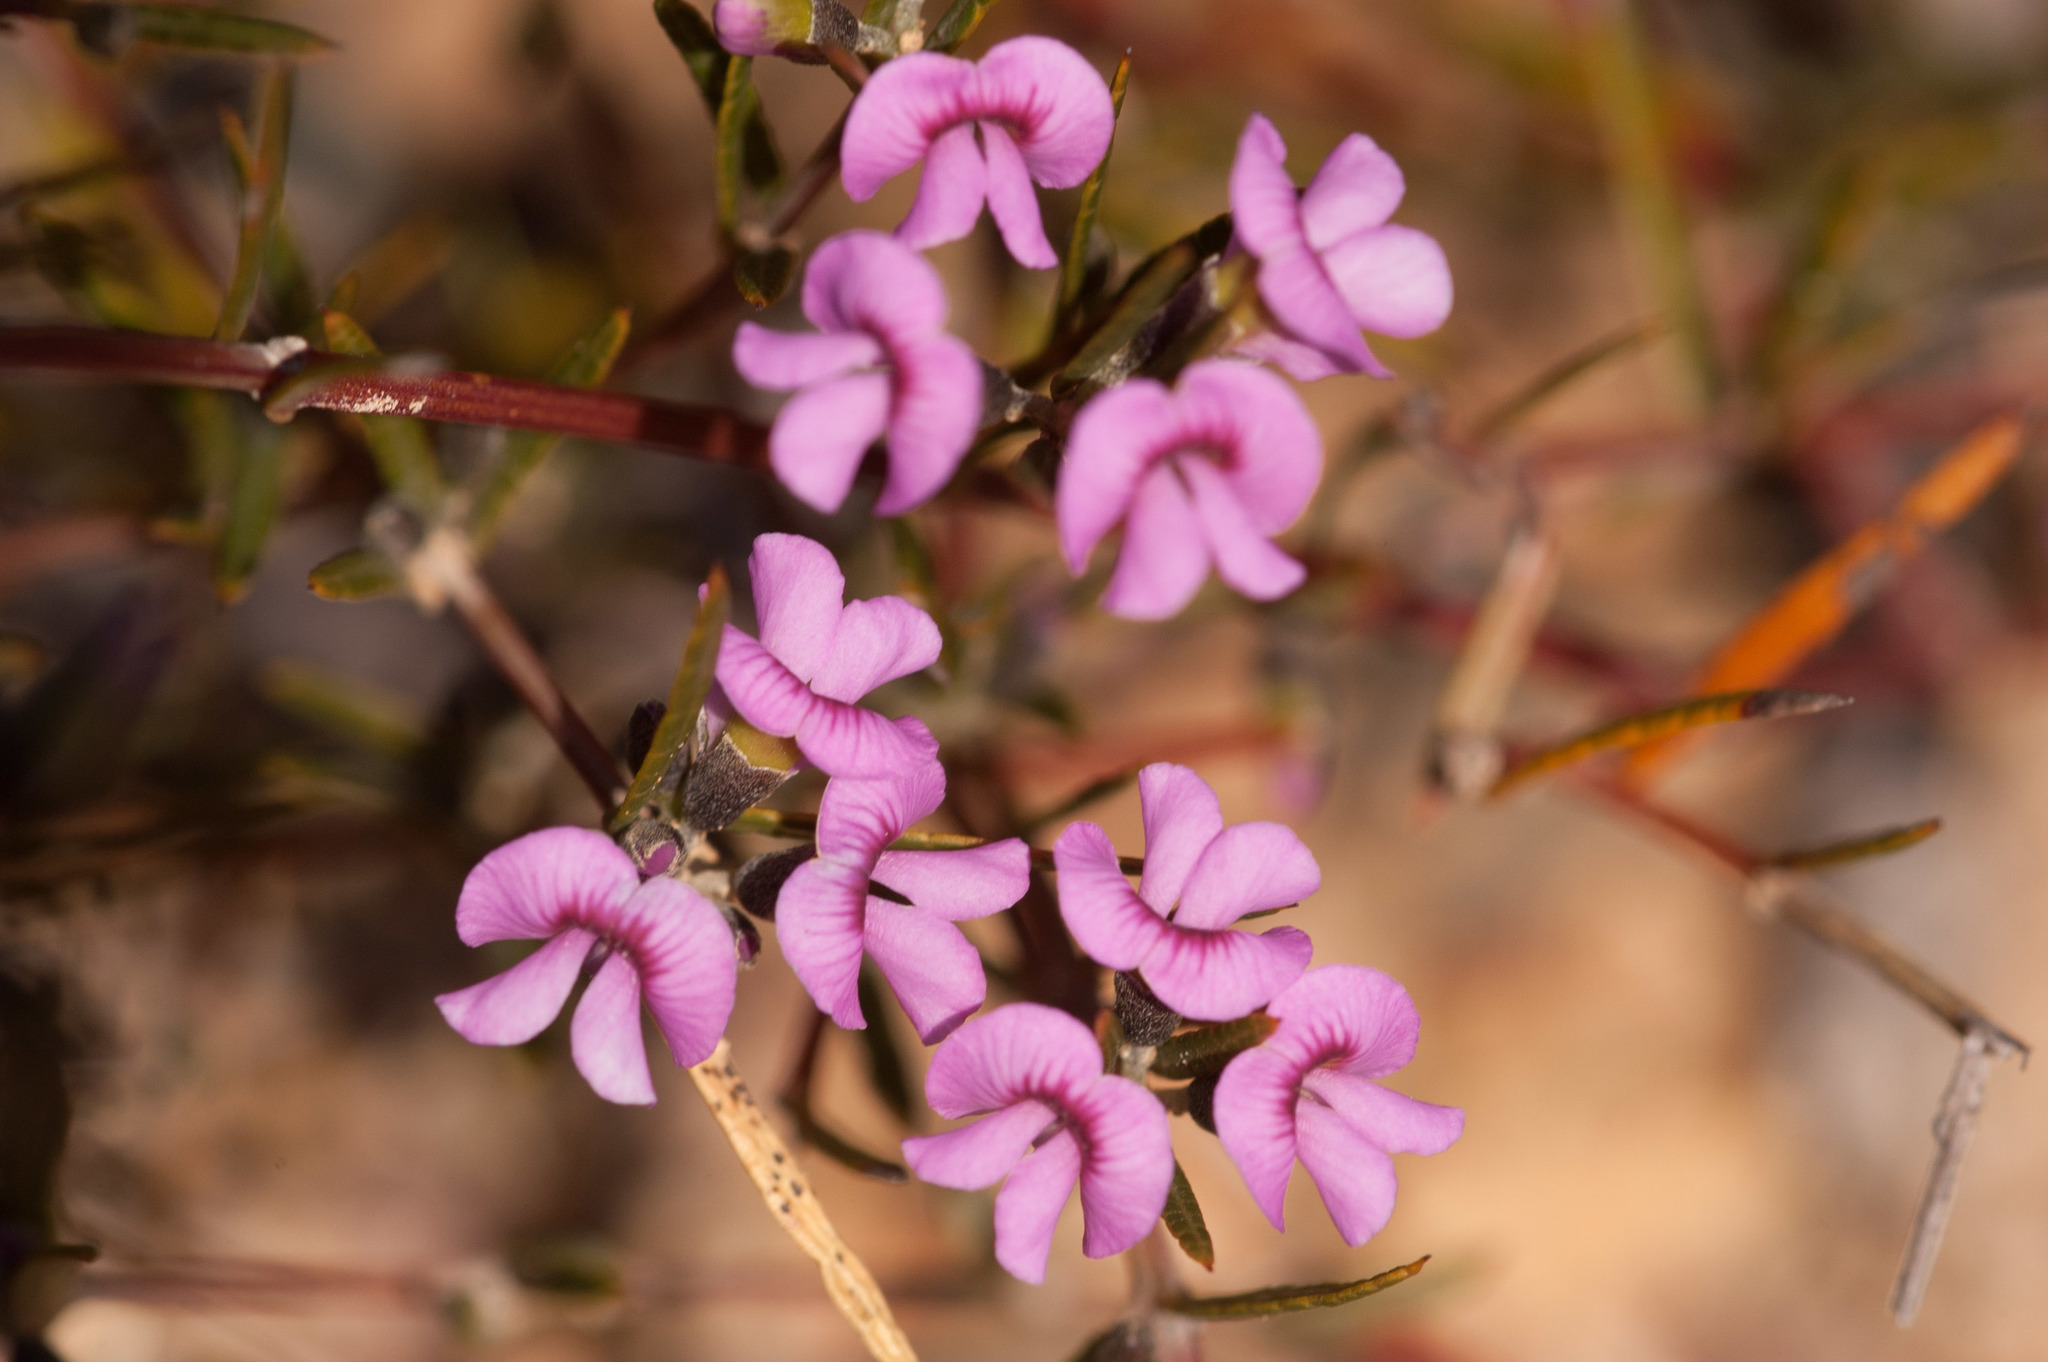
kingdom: Plantae
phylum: Tracheophyta
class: Magnoliopsida
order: Fabales
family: Fabaceae
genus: Mirbelia
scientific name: Mirbelia rubiifolia
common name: Heathy mirbelia
